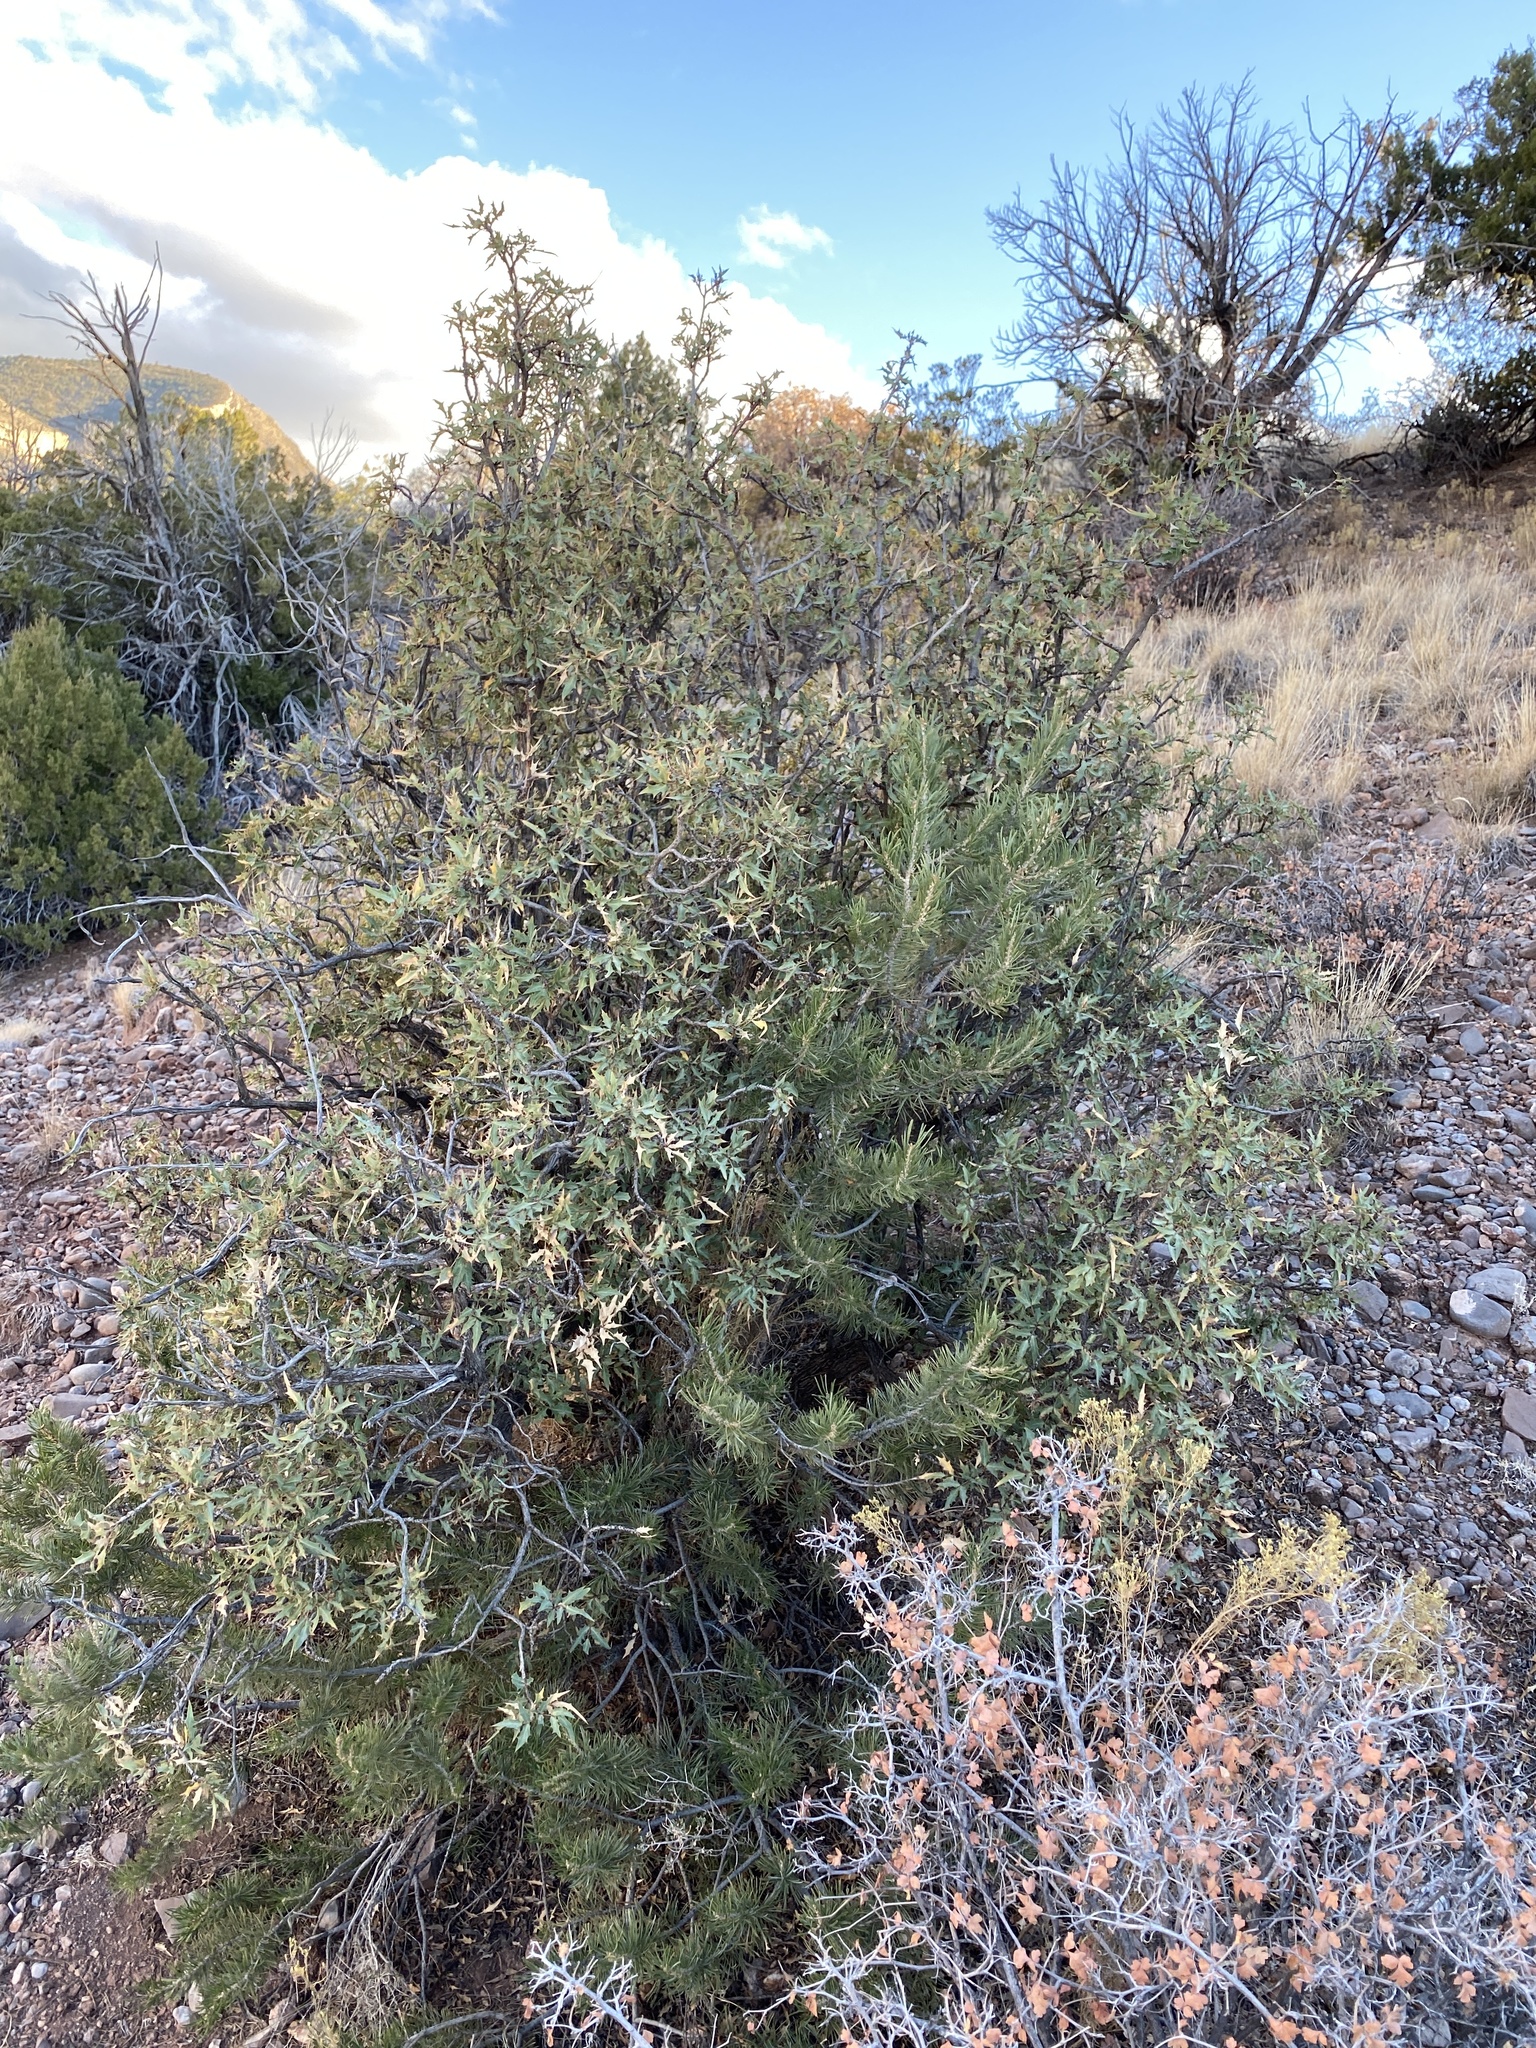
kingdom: Plantae
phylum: Tracheophyta
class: Pinopsida
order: Pinales
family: Pinaceae
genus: Pinus
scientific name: Pinus edulis
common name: Colorado pinyon
